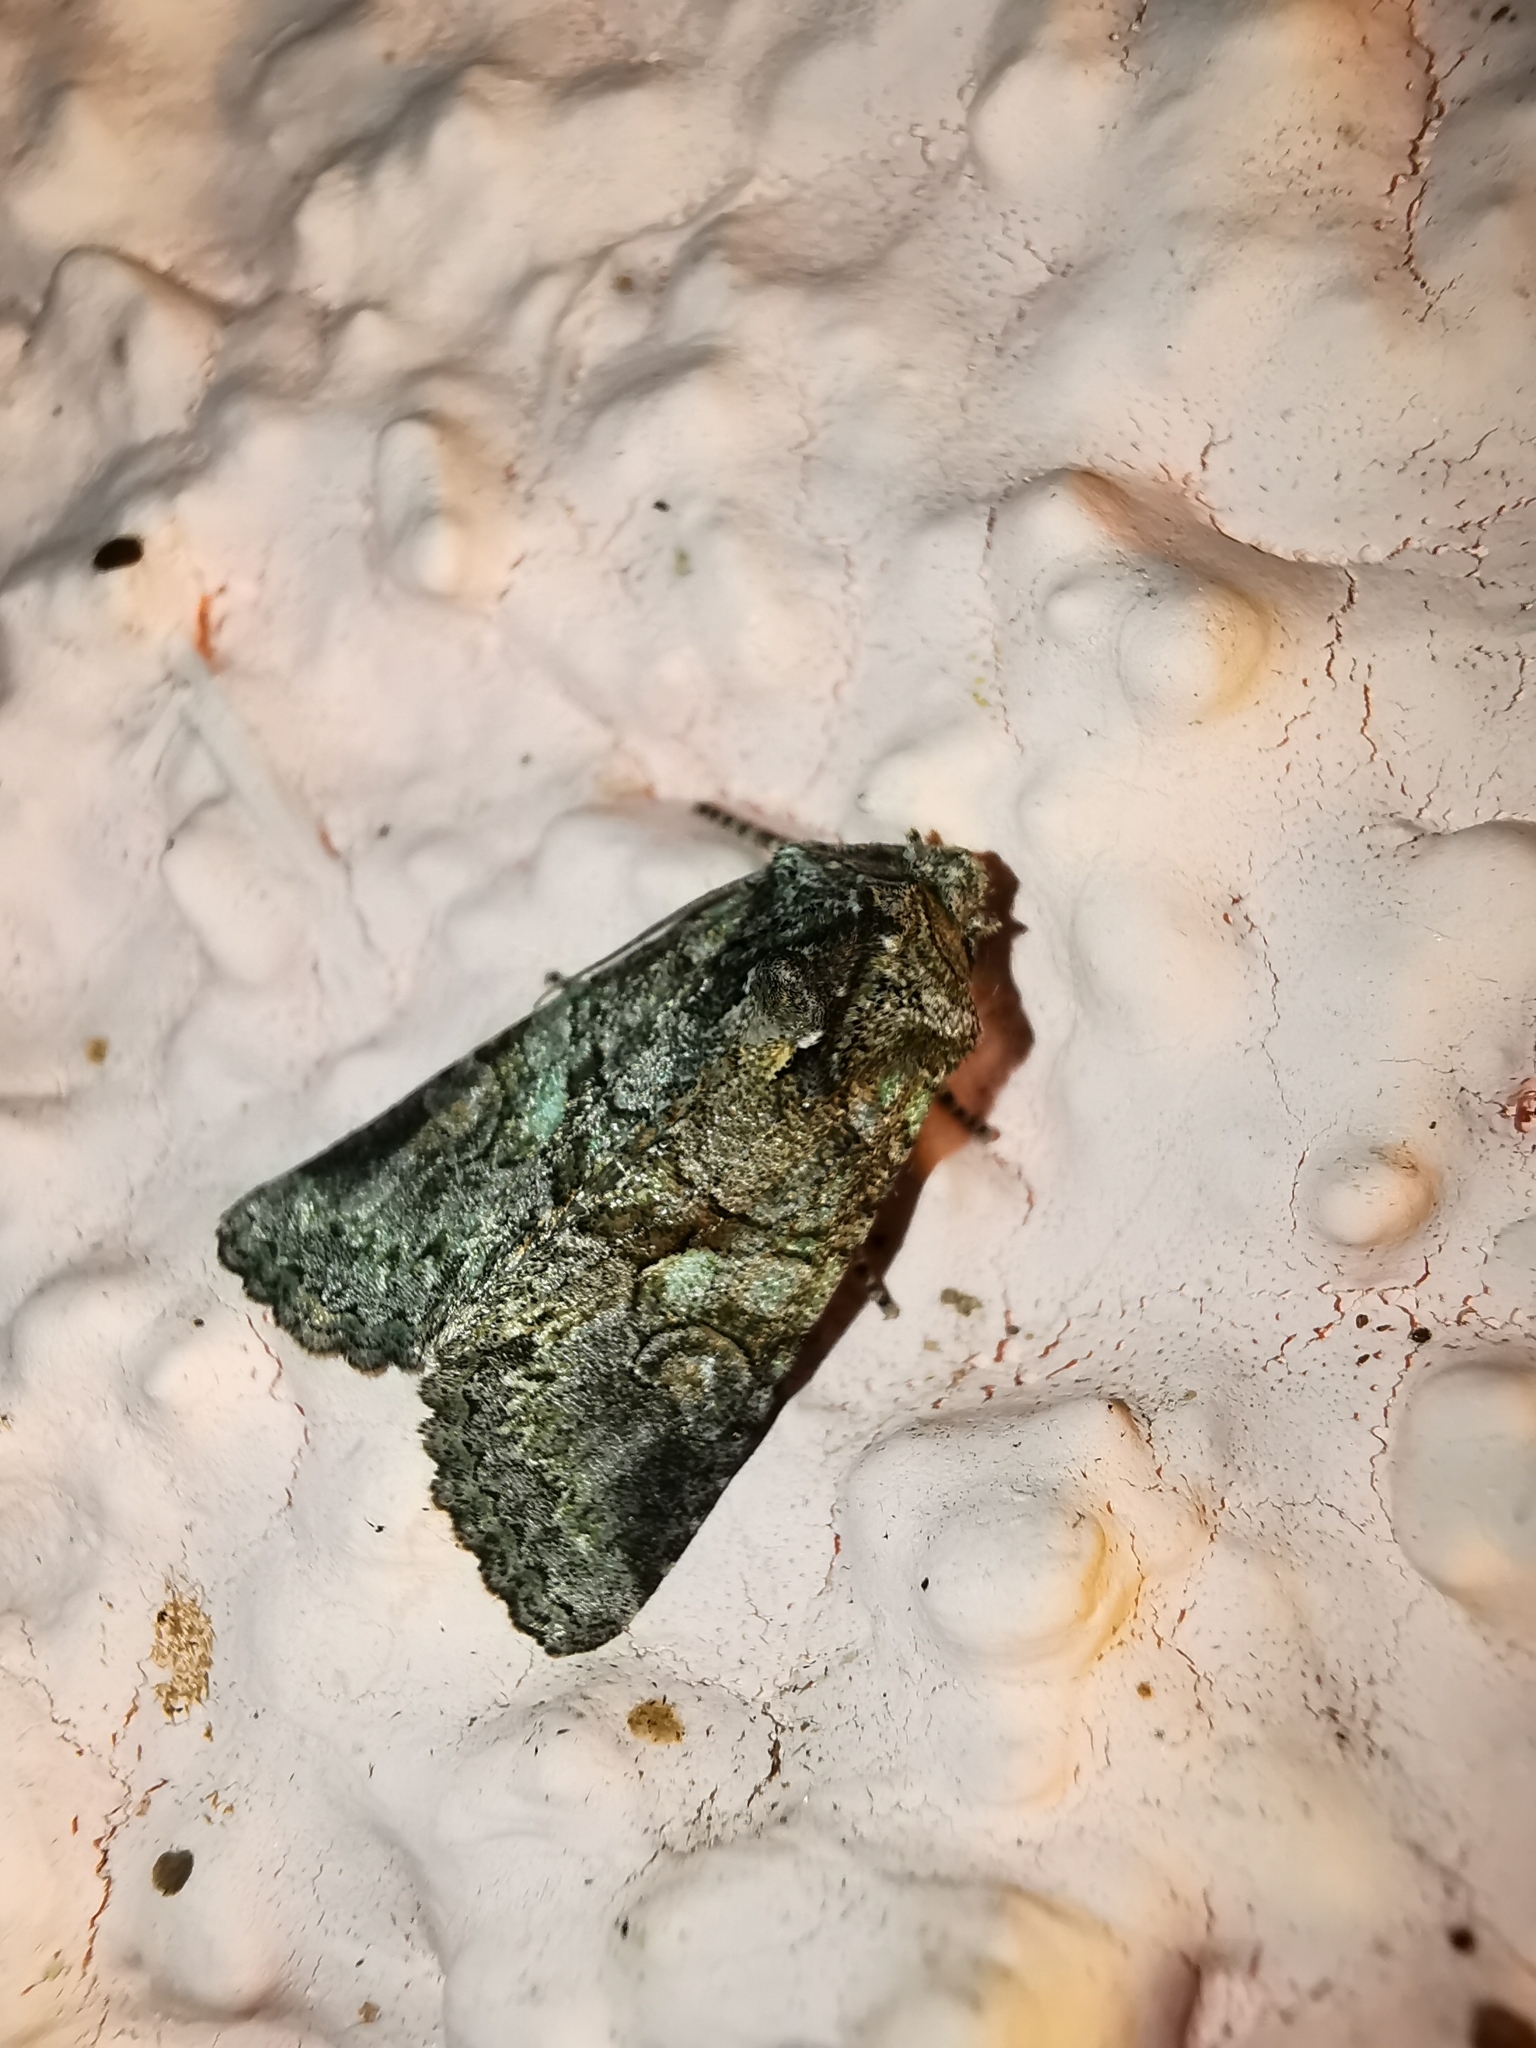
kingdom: Animalia
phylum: Arthropoda
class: Insecta
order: Lepidoptera
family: Noctuidae
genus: Dryobotodes
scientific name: Dryobotodes carbonis
